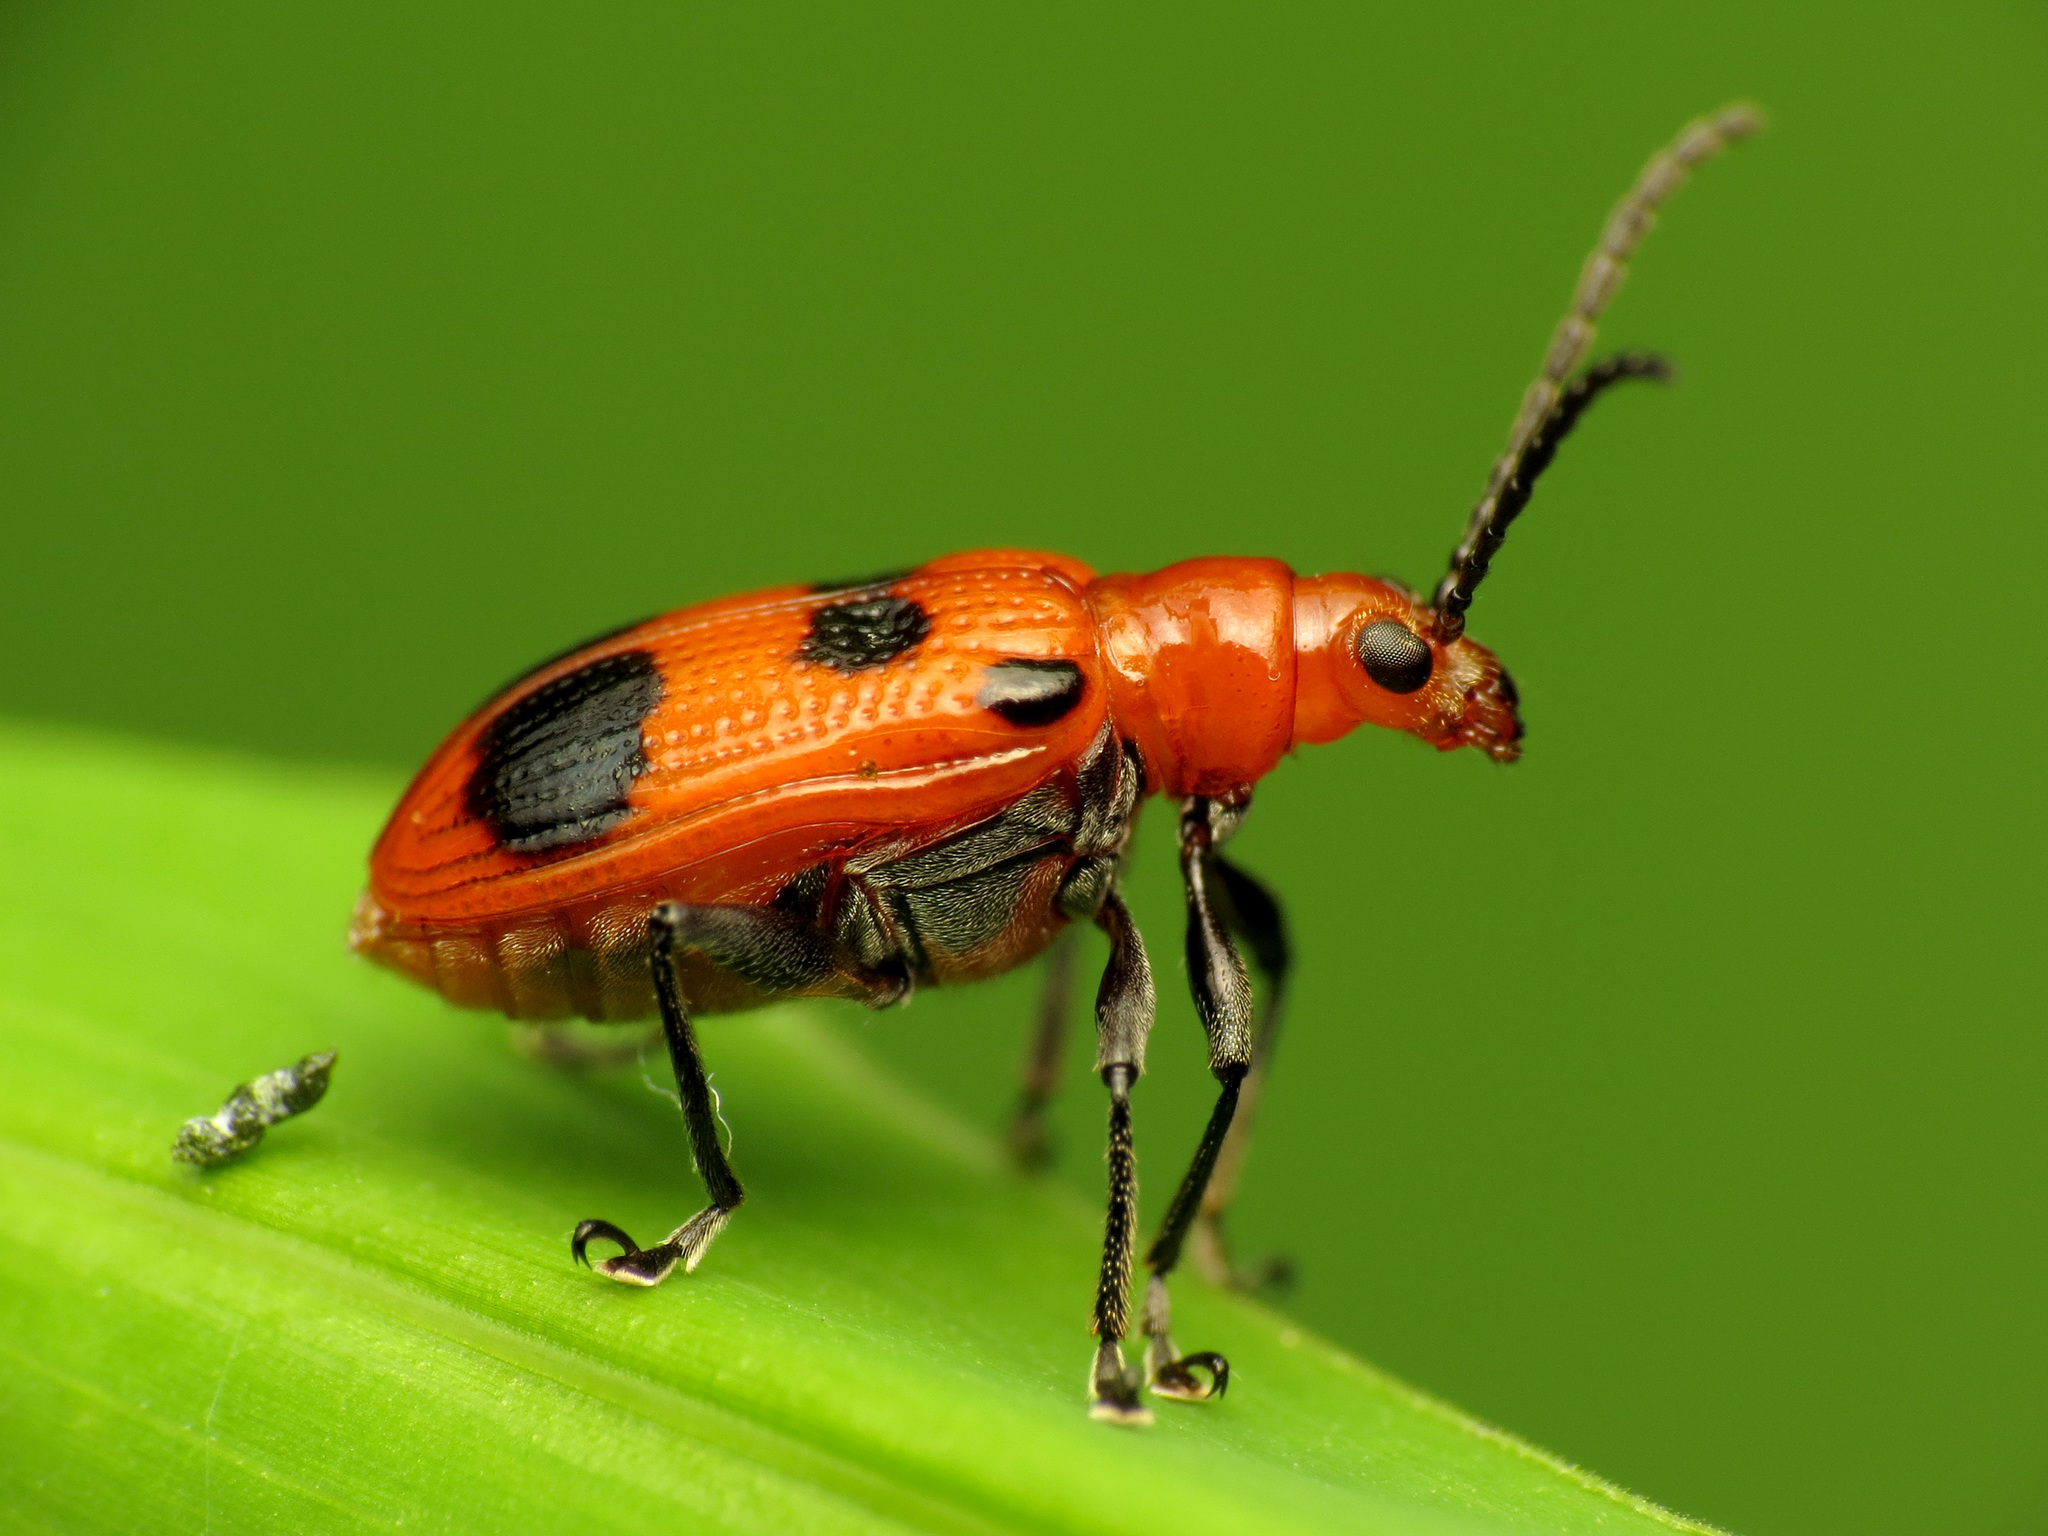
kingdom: Animalia
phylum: Arthropoda
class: Insecta
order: Coleoptera
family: Chrysomelidae
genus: Neolema
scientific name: Neolema sexpunctata
